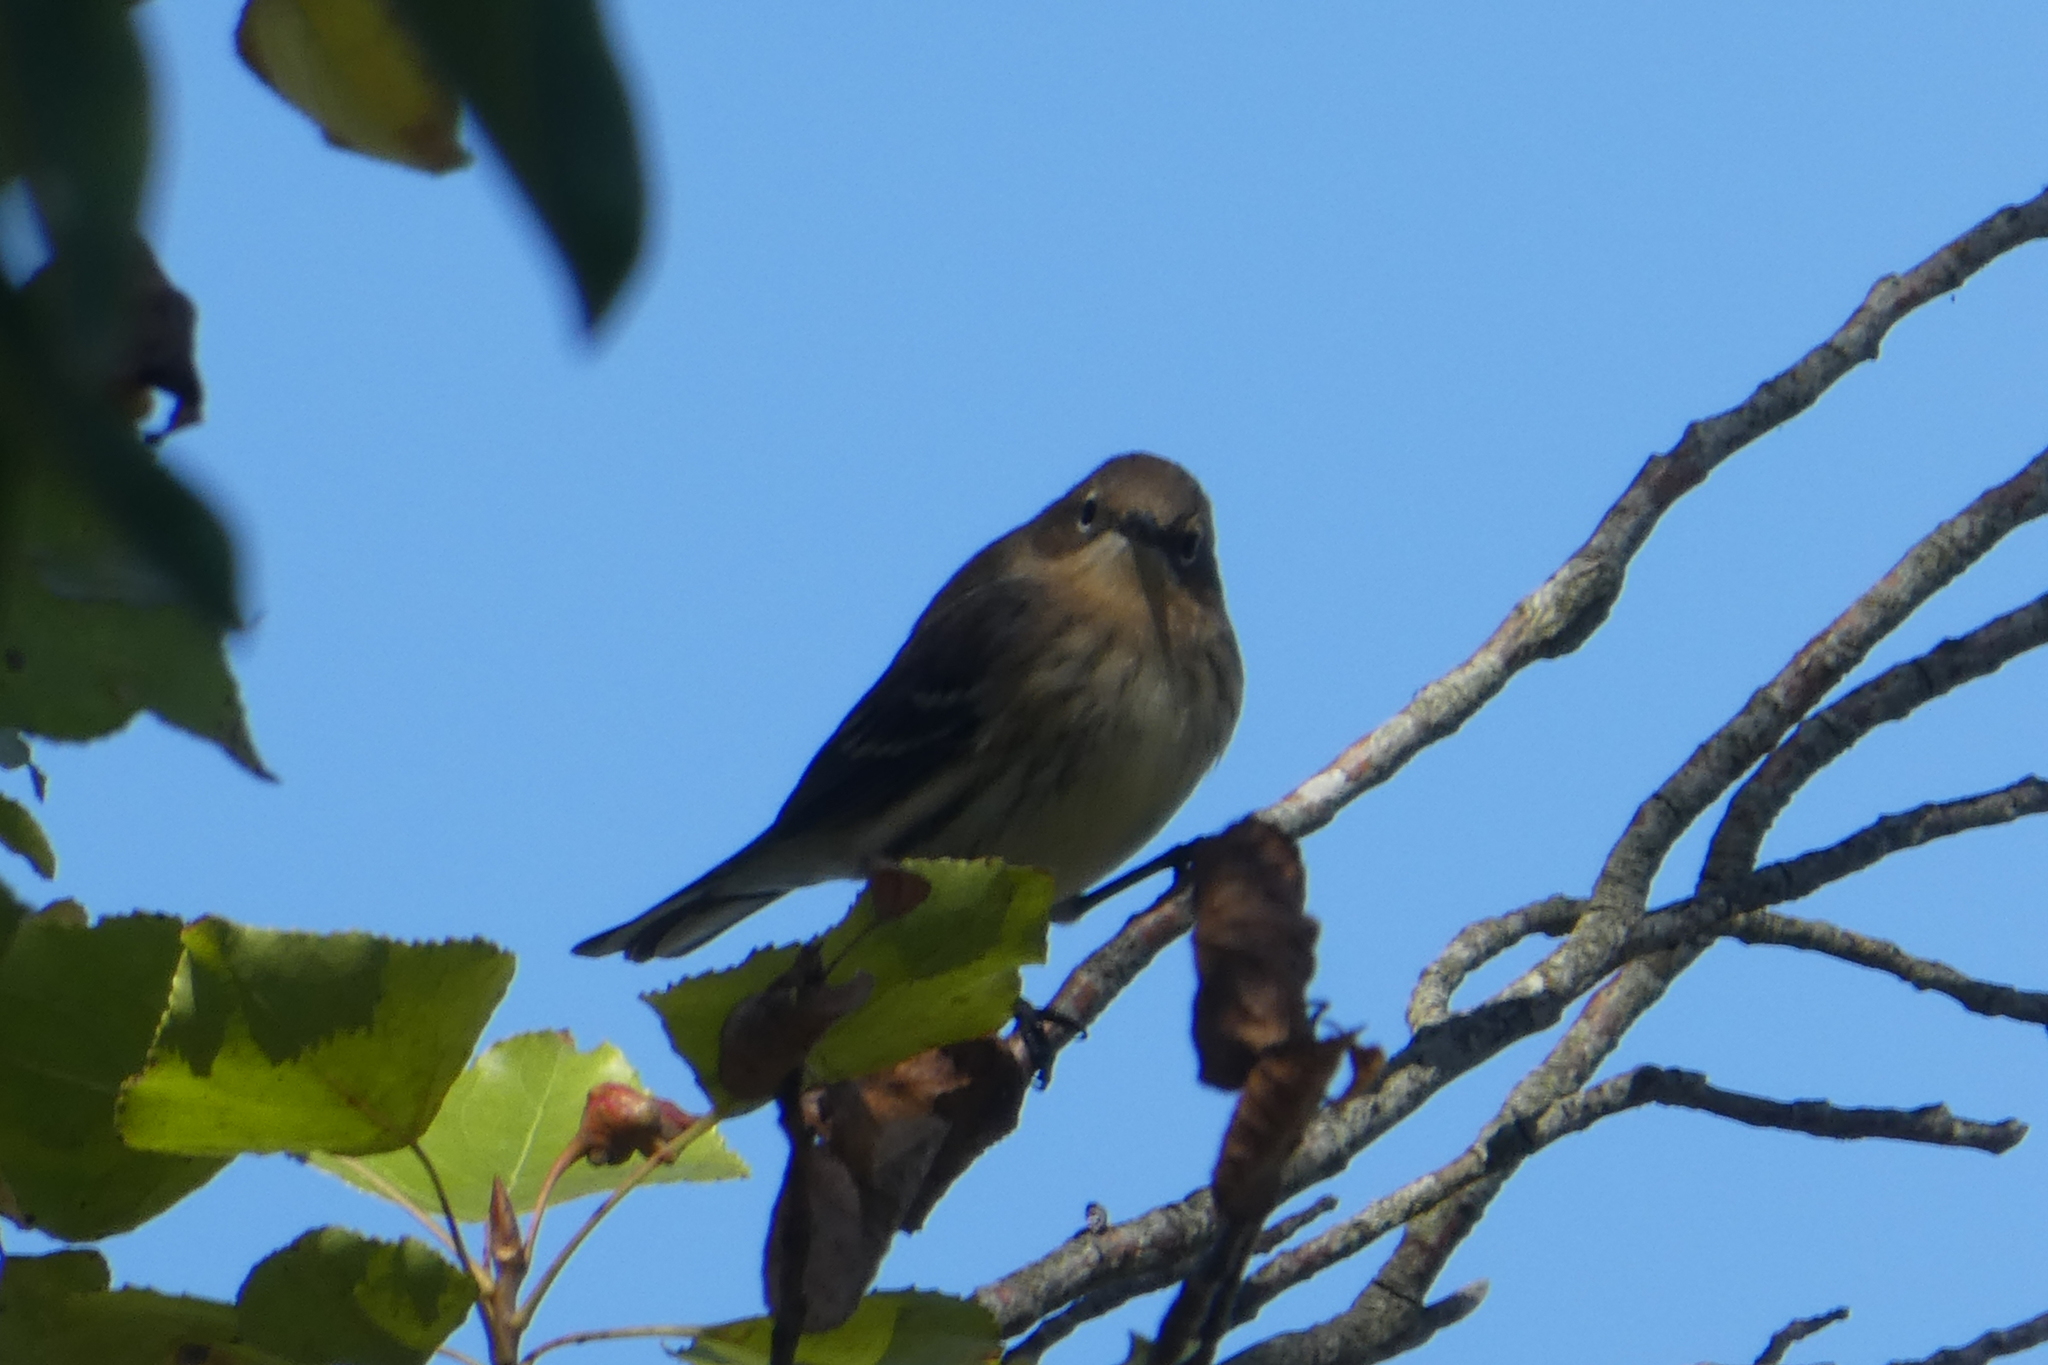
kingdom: Animalia
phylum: Chordata
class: Aves
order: Passeriformes
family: Parulidae
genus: Setophaga
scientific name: Setophaga coronata
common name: Myrtle warbler
